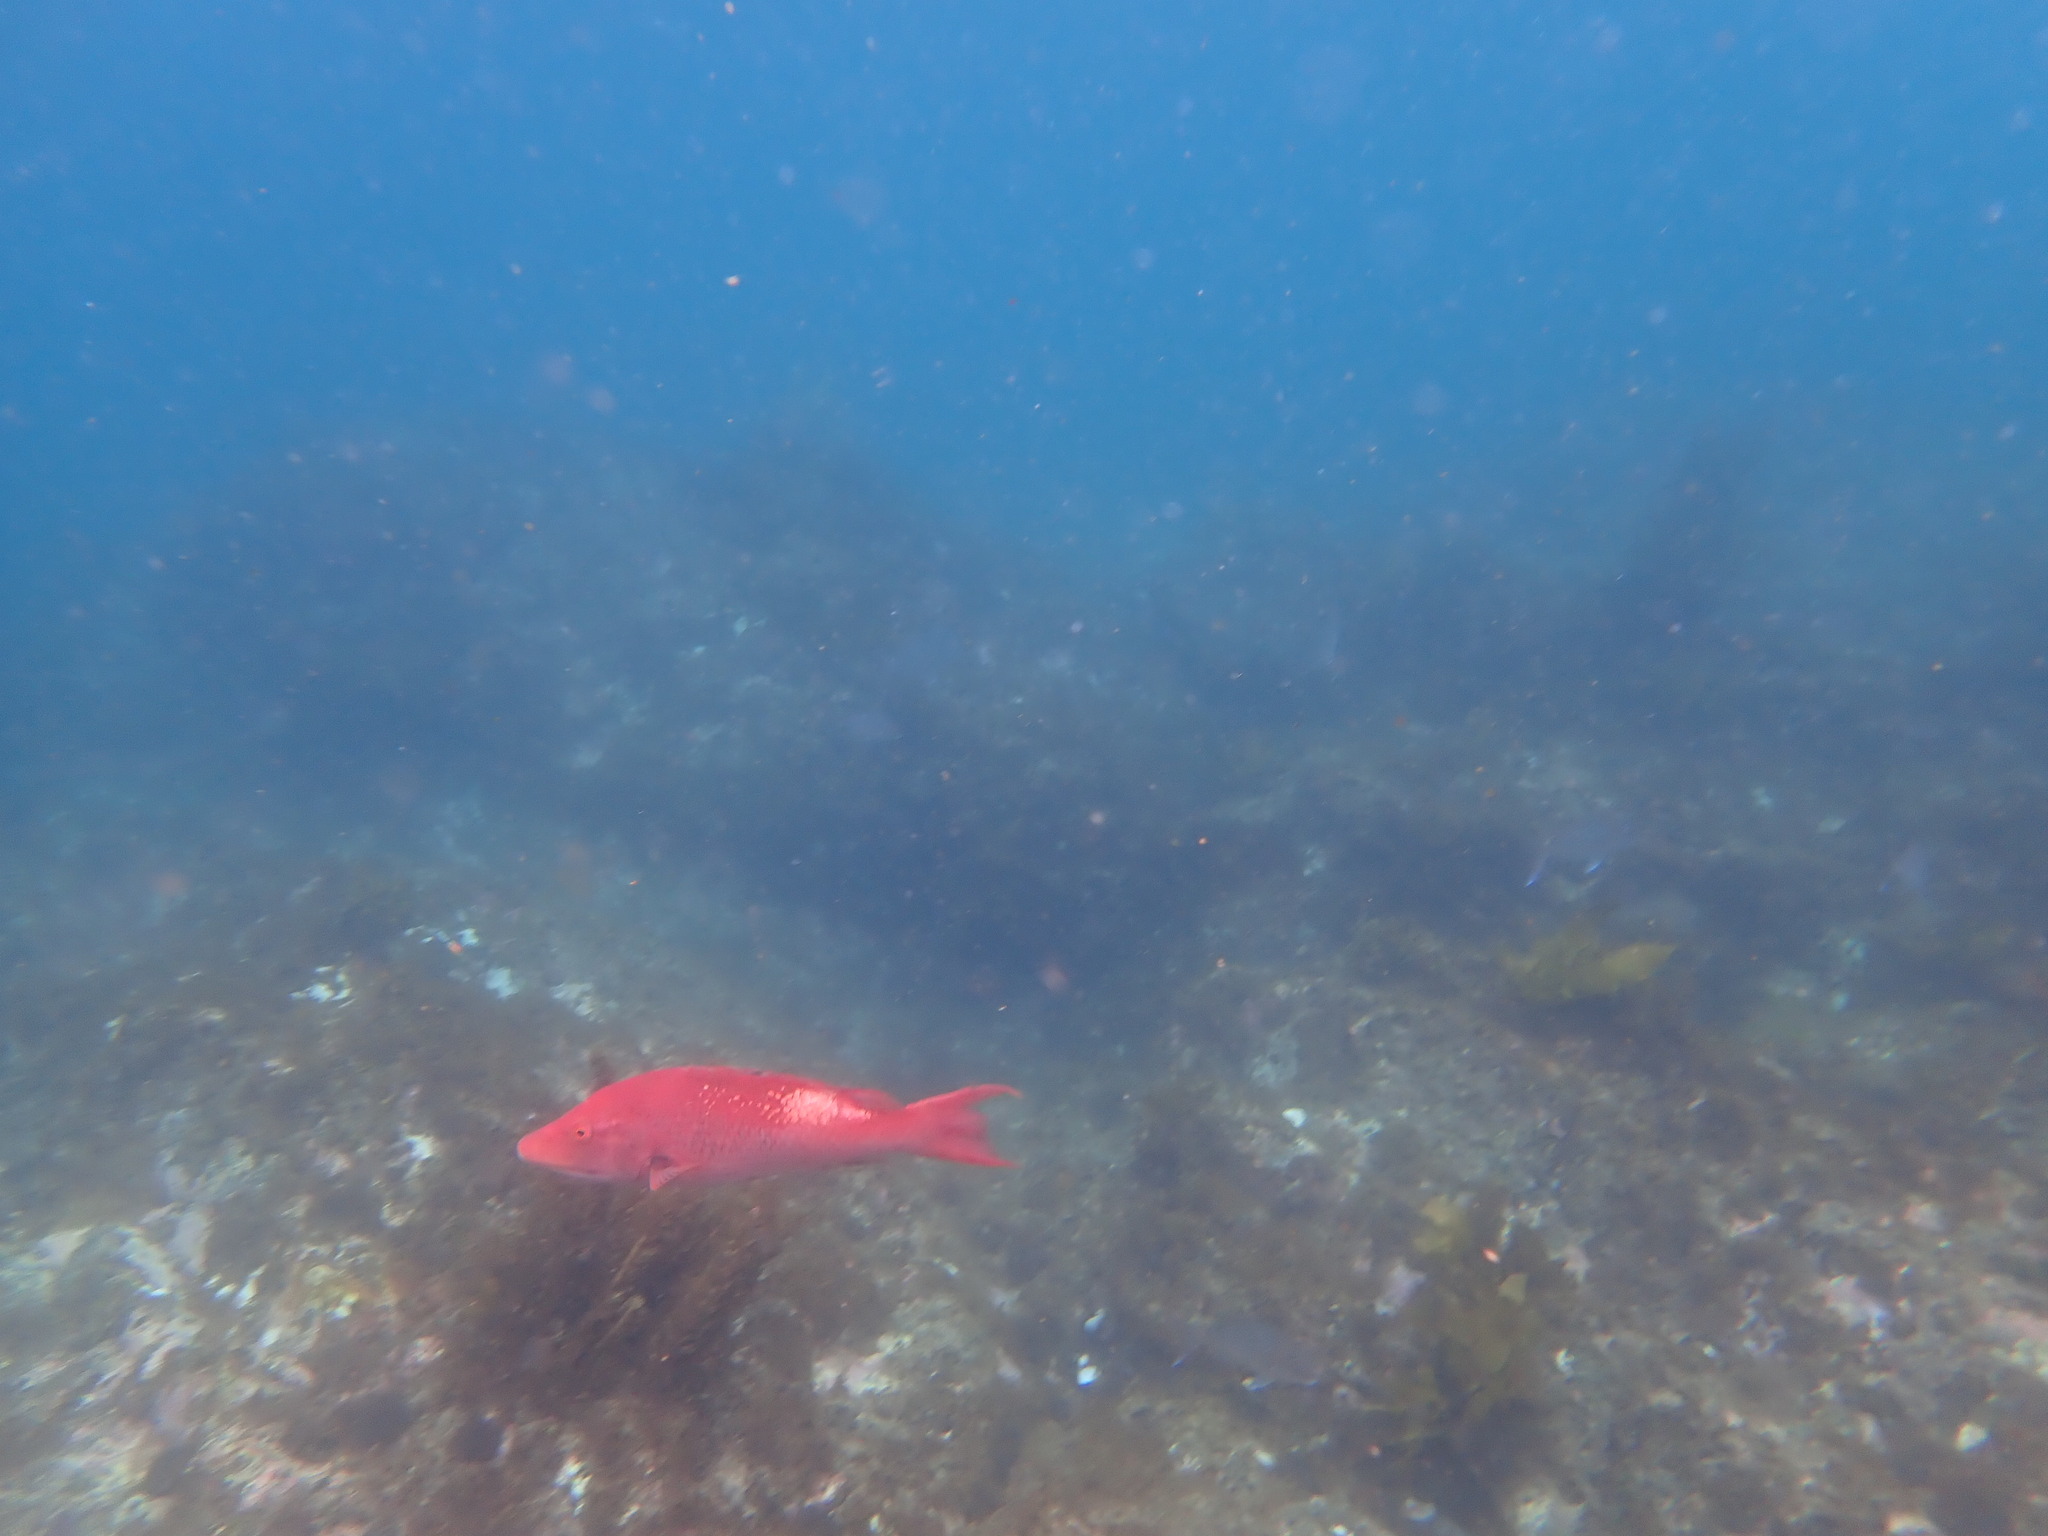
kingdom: Animalia
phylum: Chordata
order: Perciformes
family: Labridae
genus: Bodianus
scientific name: Bodianus unimaculatus
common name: Pigfish
